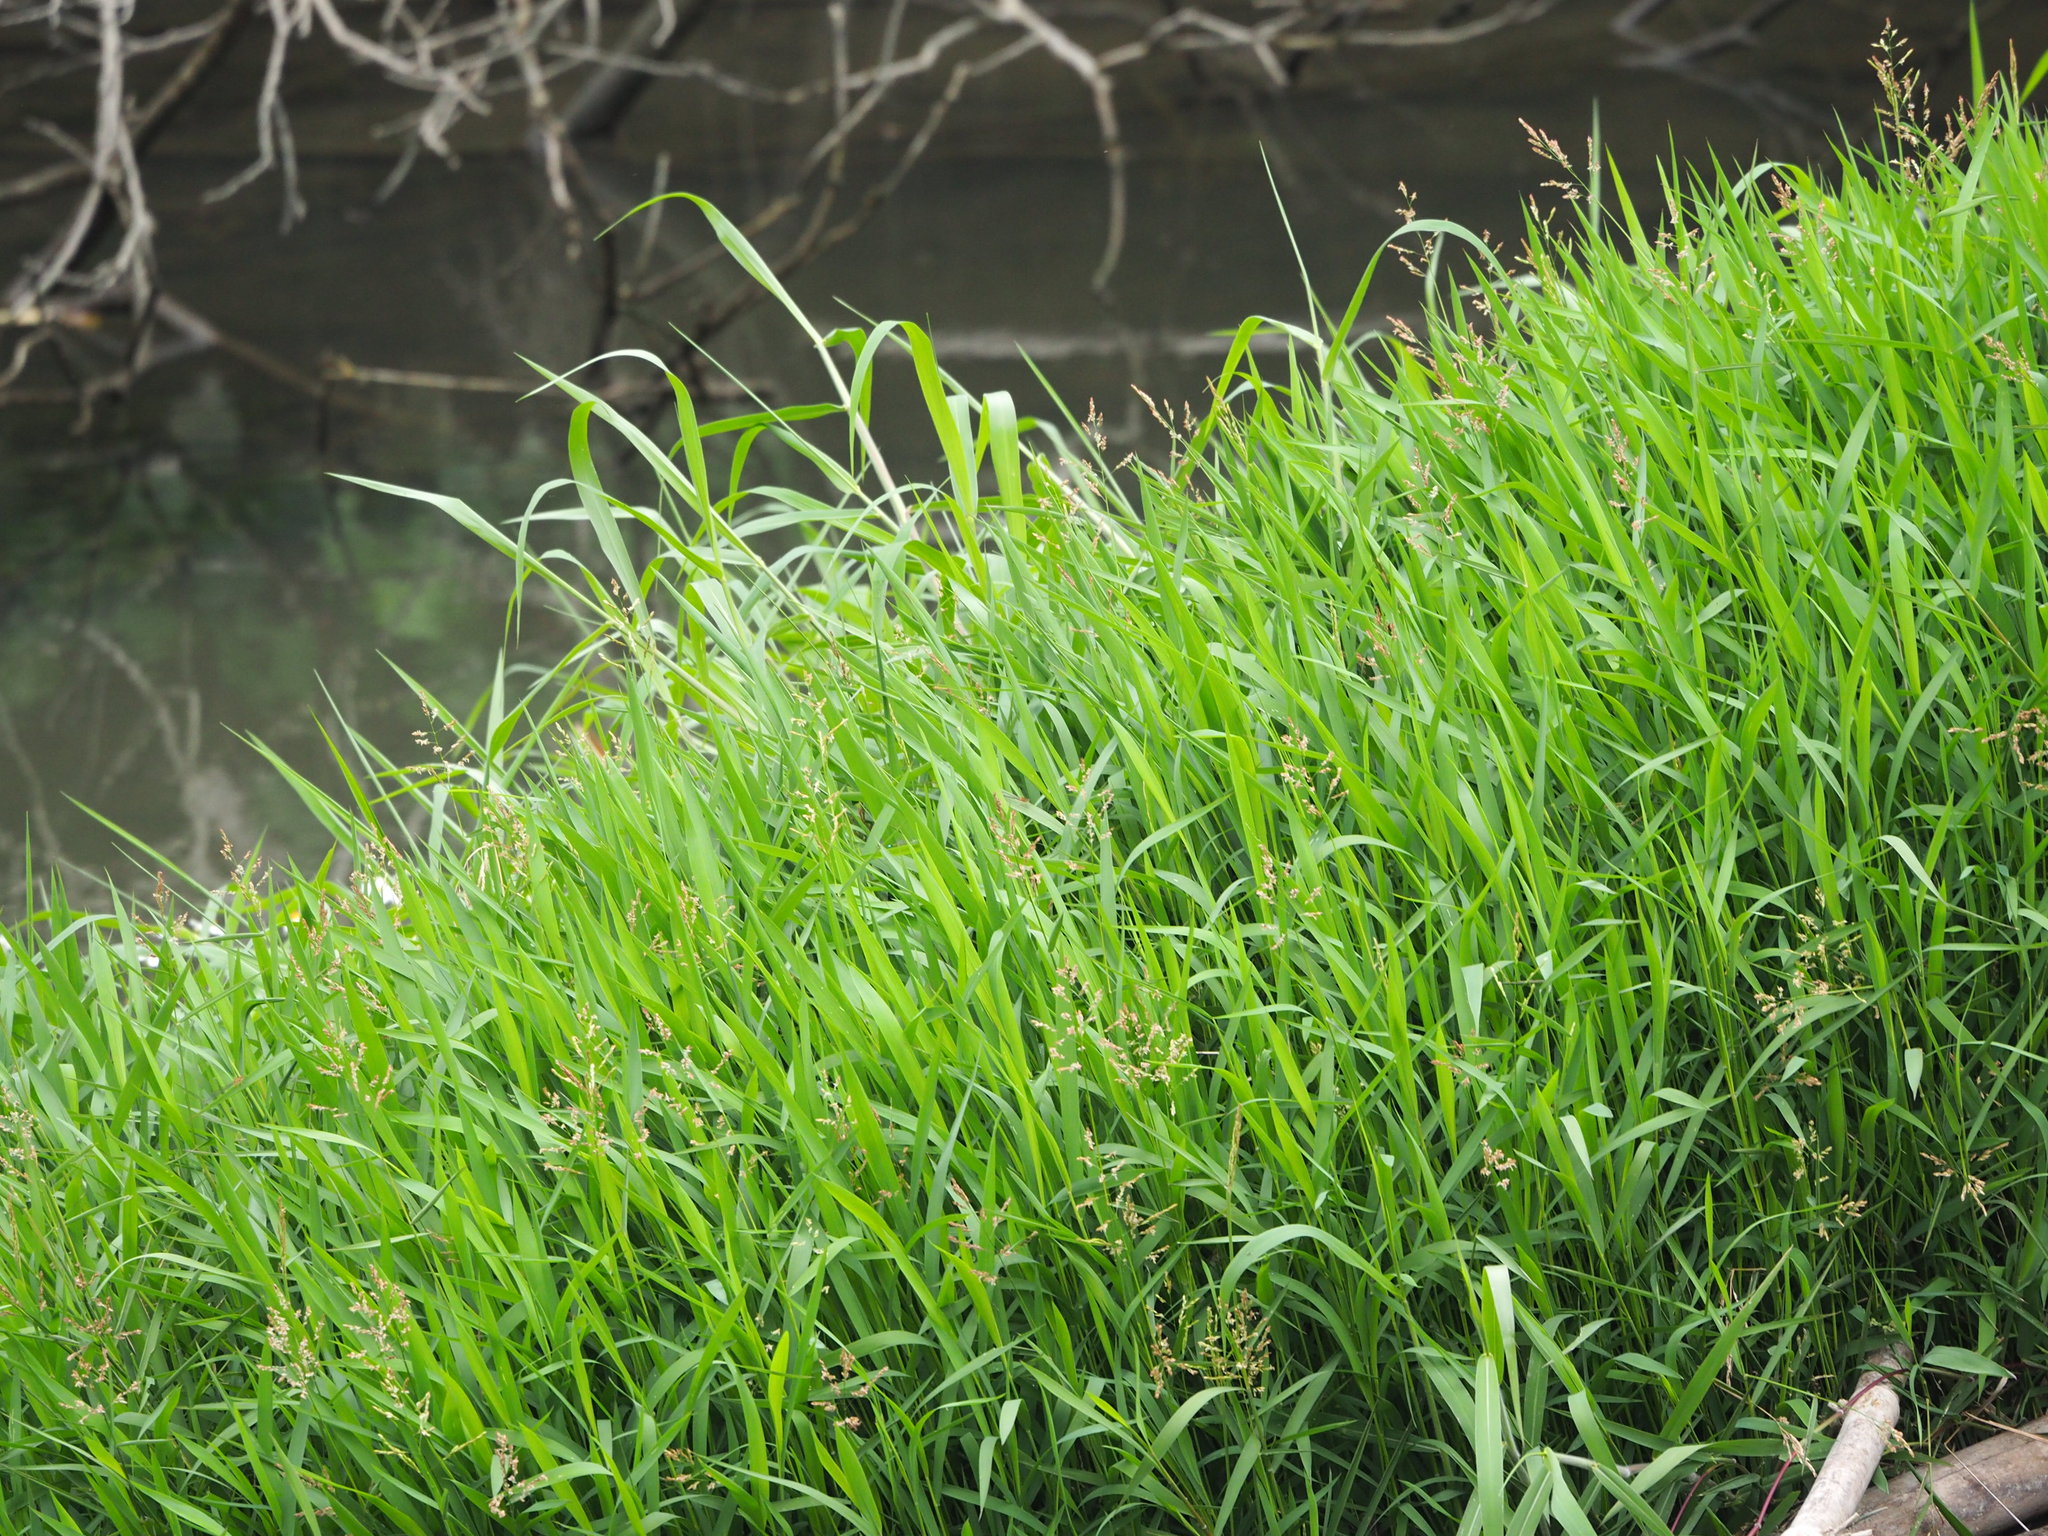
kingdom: Plantae
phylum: Tracheophyta
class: Liliopsida
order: Poales
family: Poaceae
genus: Leersia
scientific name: Leersia hexandra
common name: Southern cut grass
